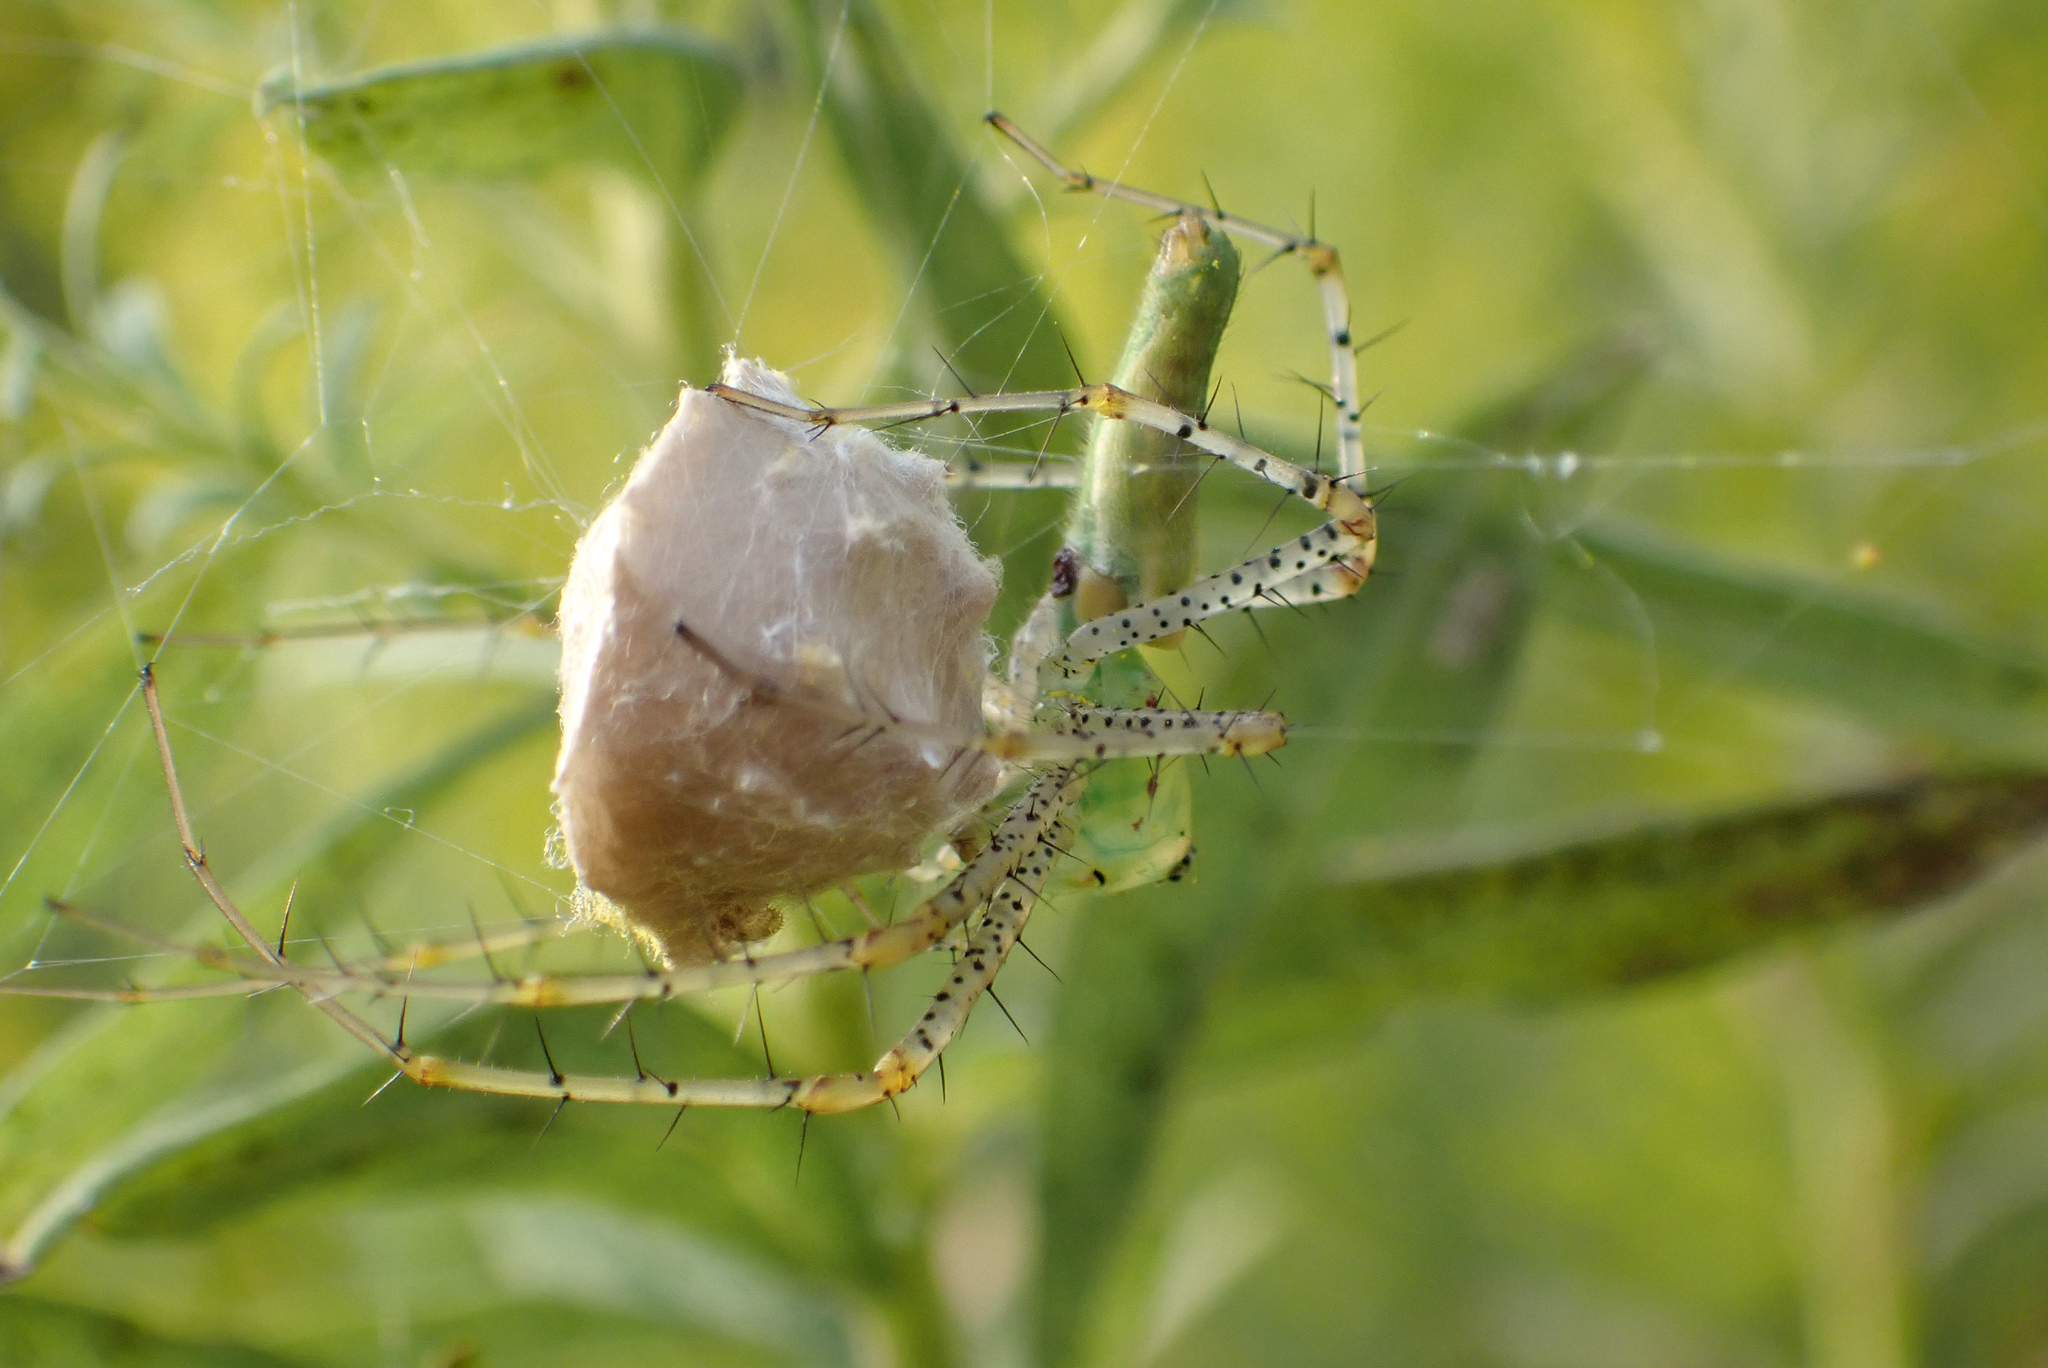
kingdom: Animalia
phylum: Arthropoda
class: Arachnida
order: Araneae
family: Oxyopidae
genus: Peucetia
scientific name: Peucetia viridans
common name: Lynx spiders
